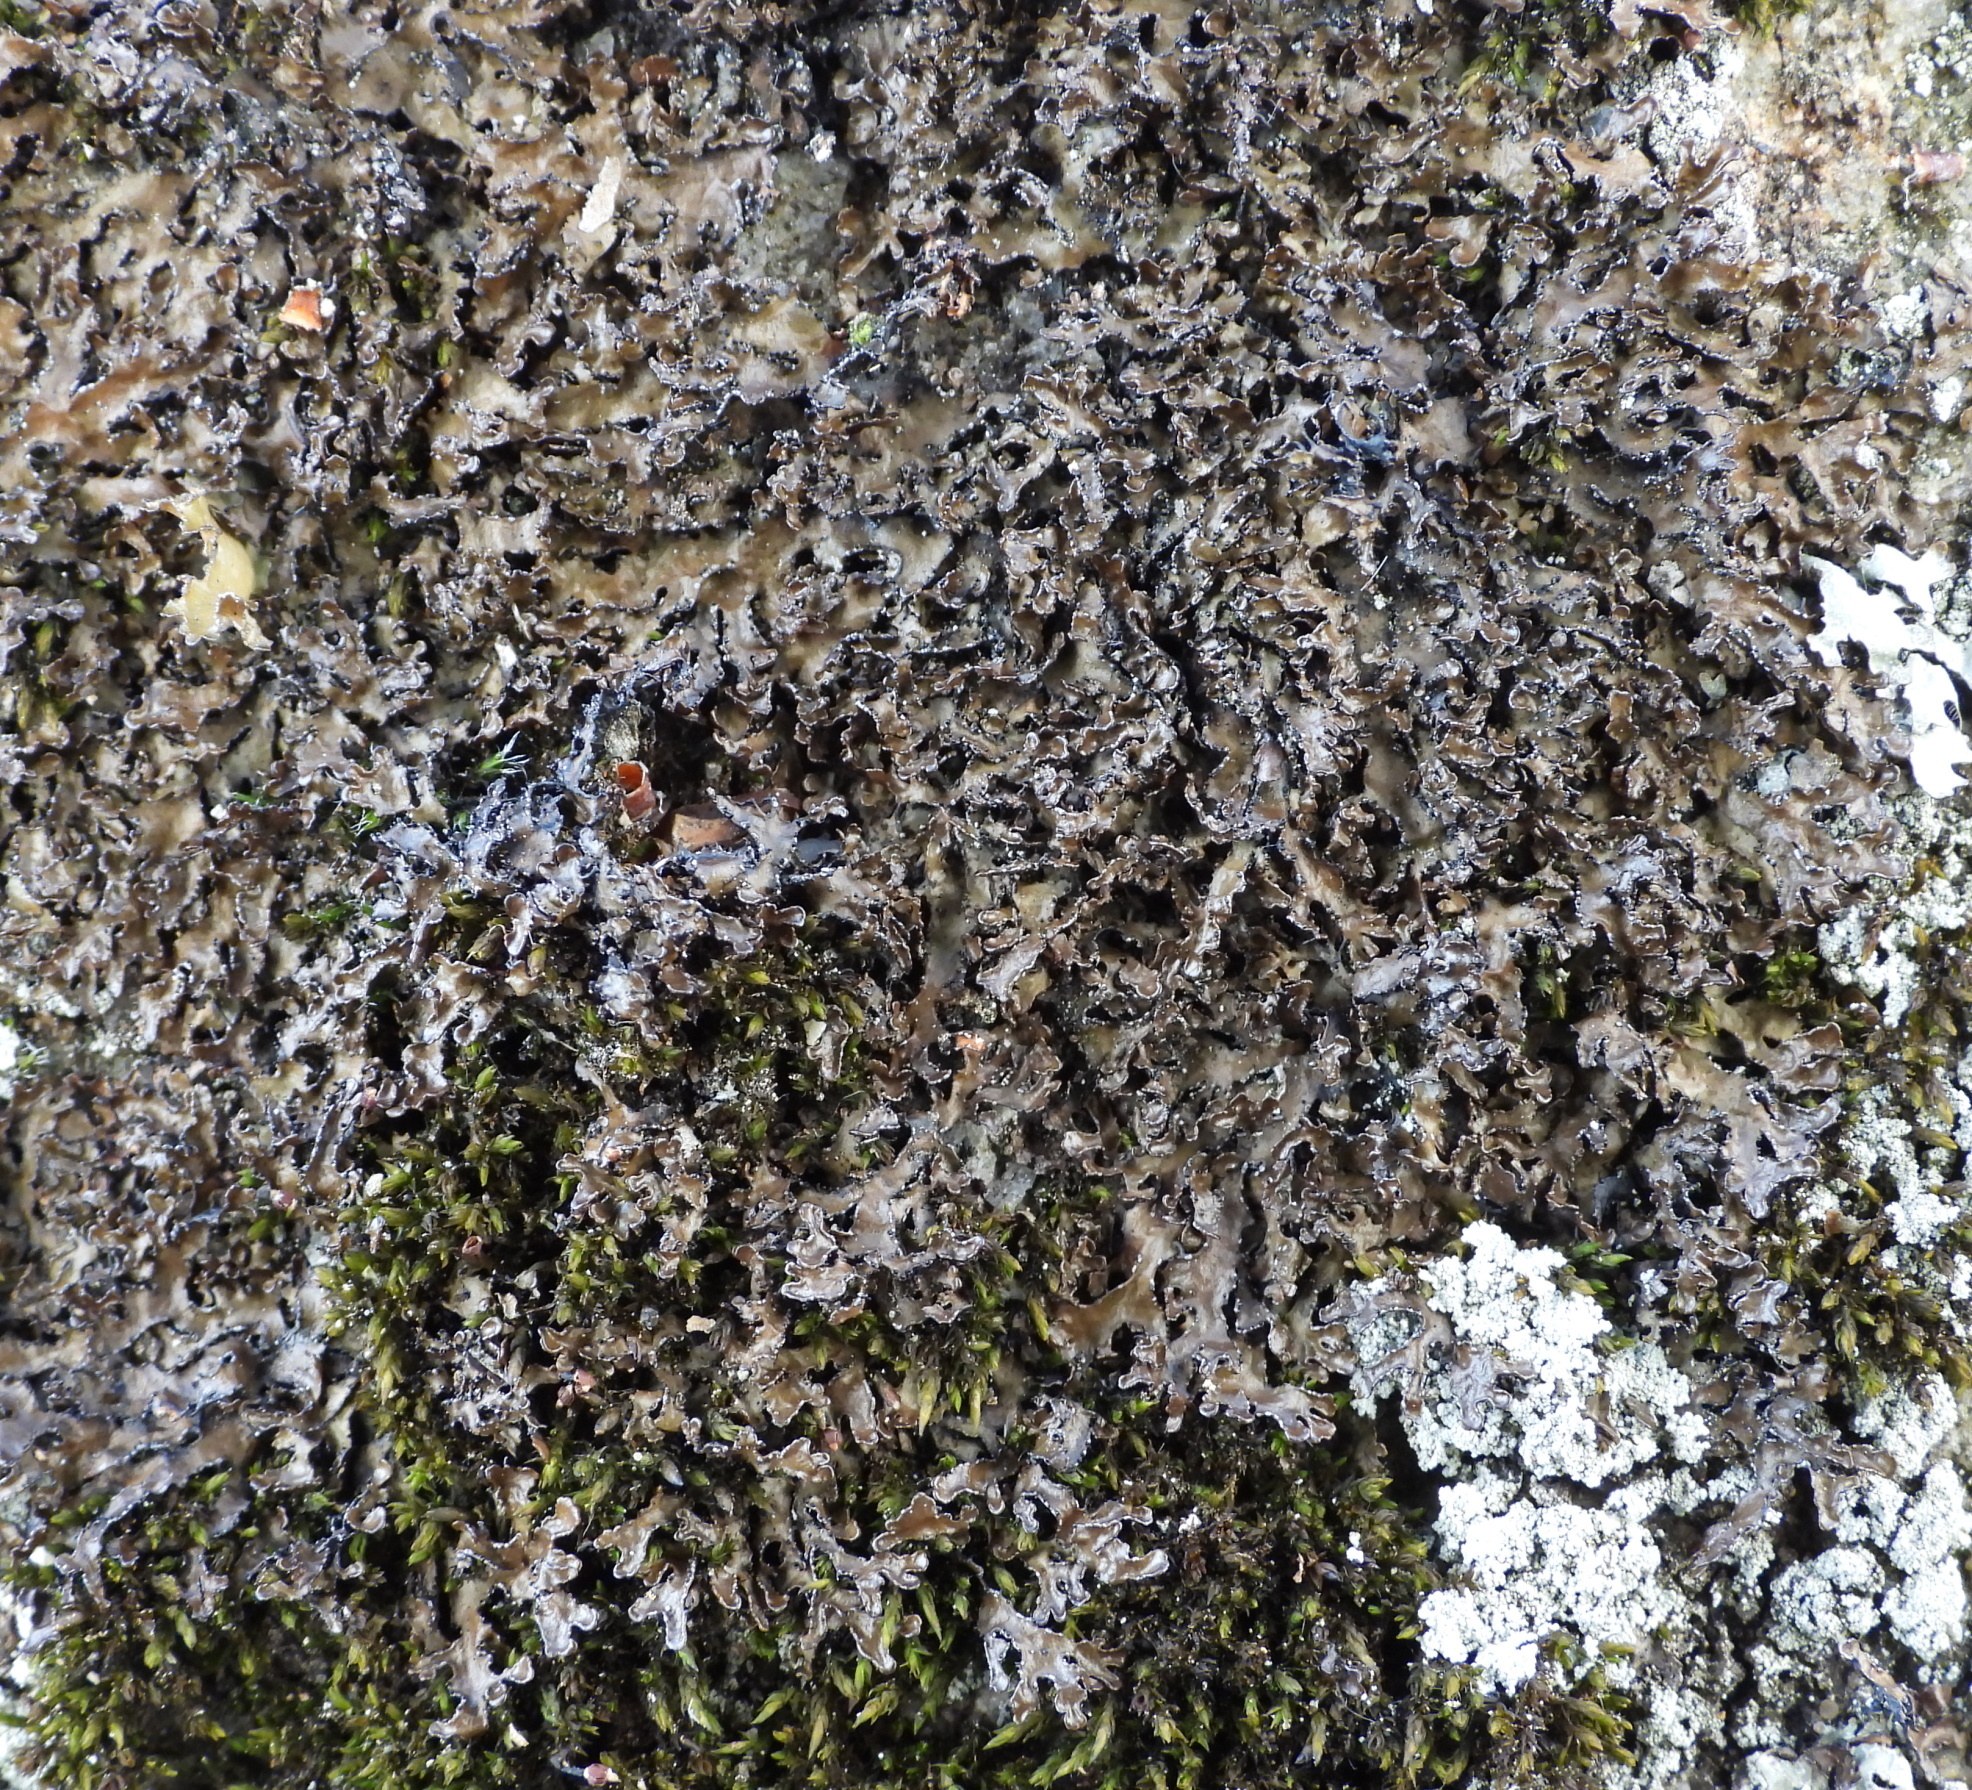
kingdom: Fungi
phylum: Ascomycota
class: Lecanoromycetes
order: Lecanorales
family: Parmeliaceae
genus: Melanelia
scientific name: Melanelia hepatizon
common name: Rimmed camouflage lichen
